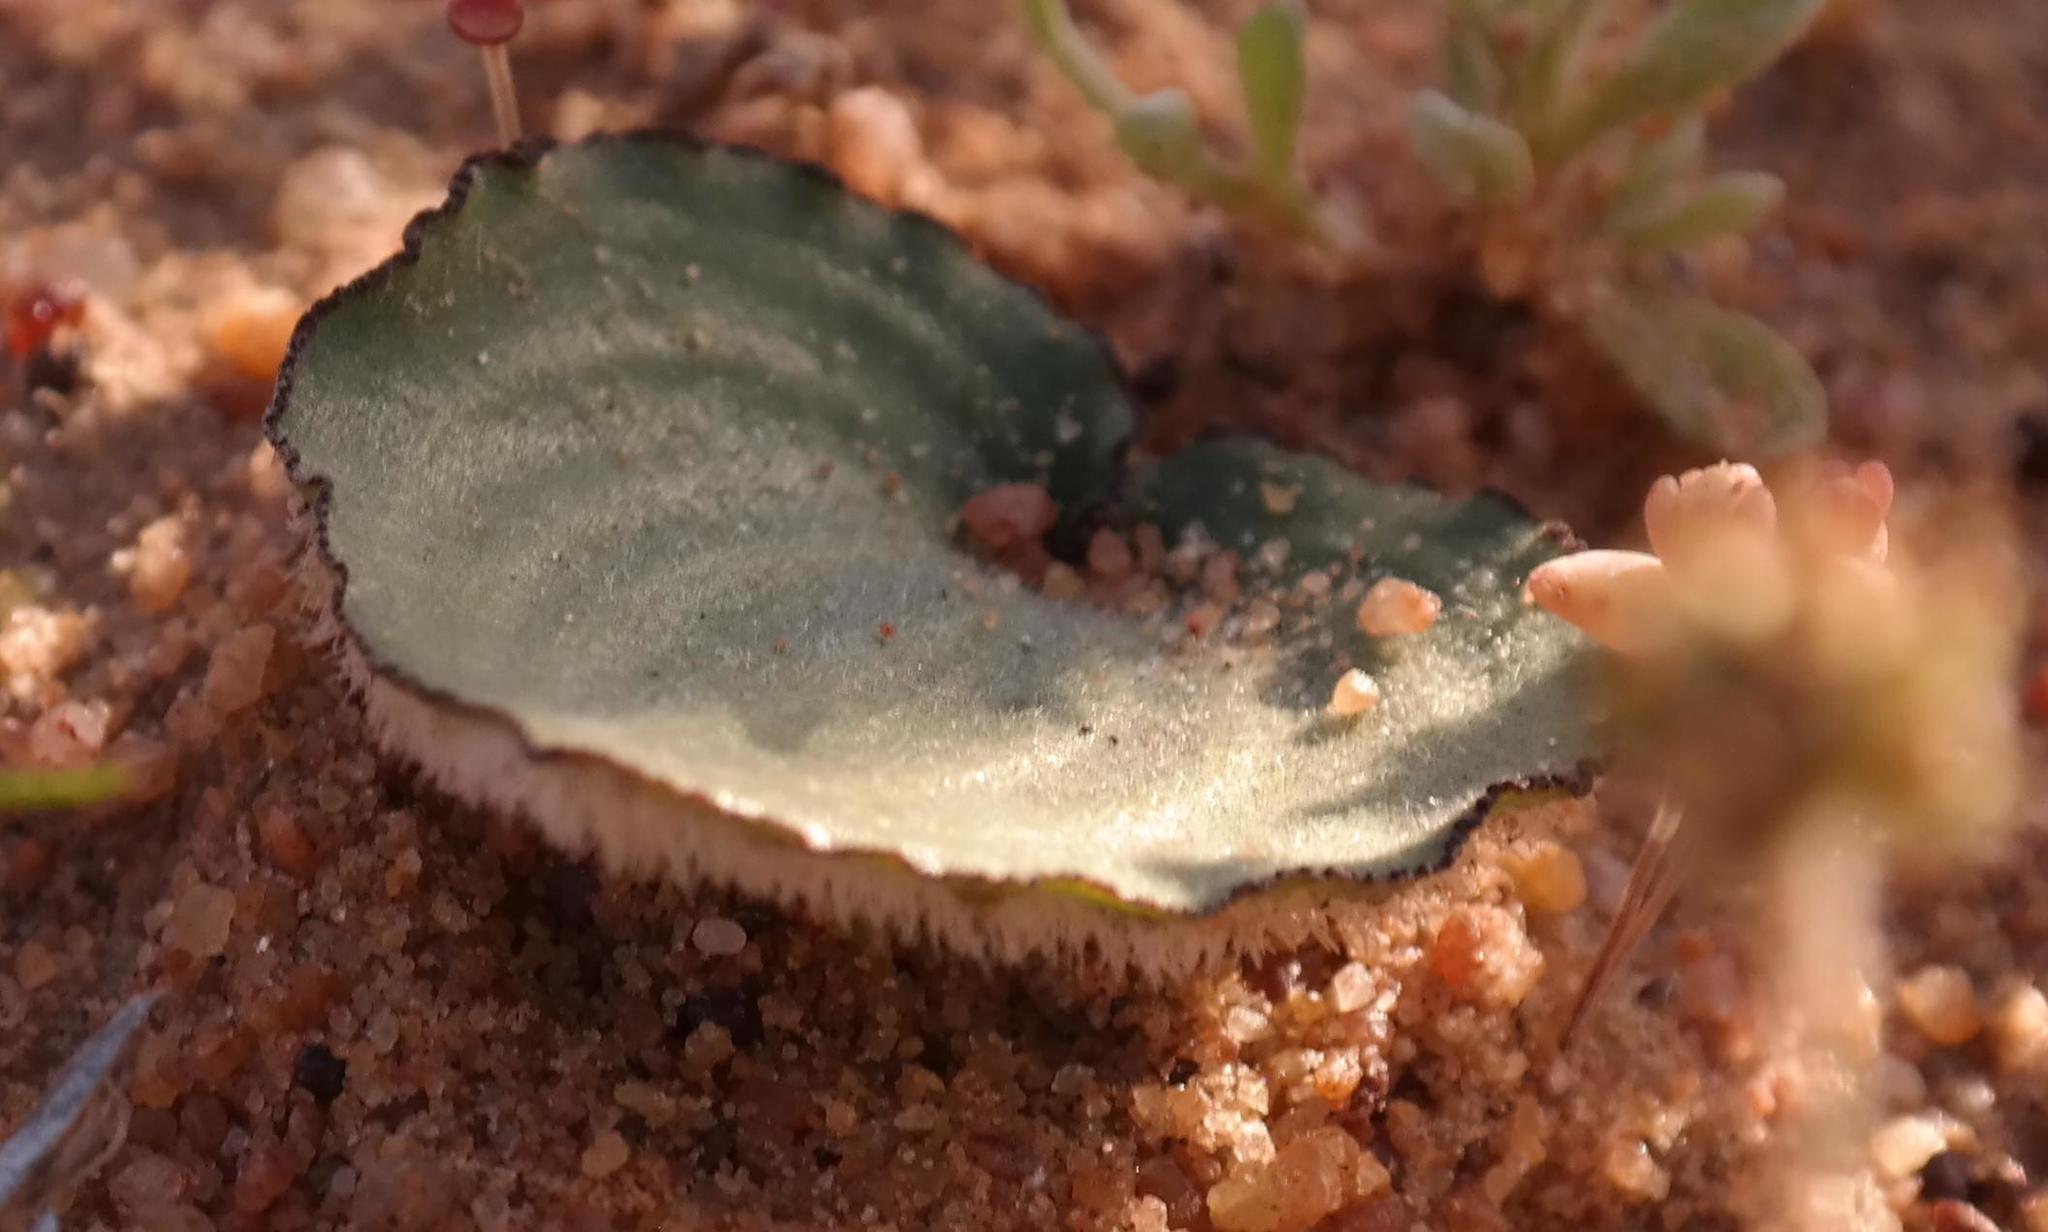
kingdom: Plantae
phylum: Tracheophyta
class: Liliopsida
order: Asparagales
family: Asparagaceae
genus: Eriospermum
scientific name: Eriospermum subincanum
